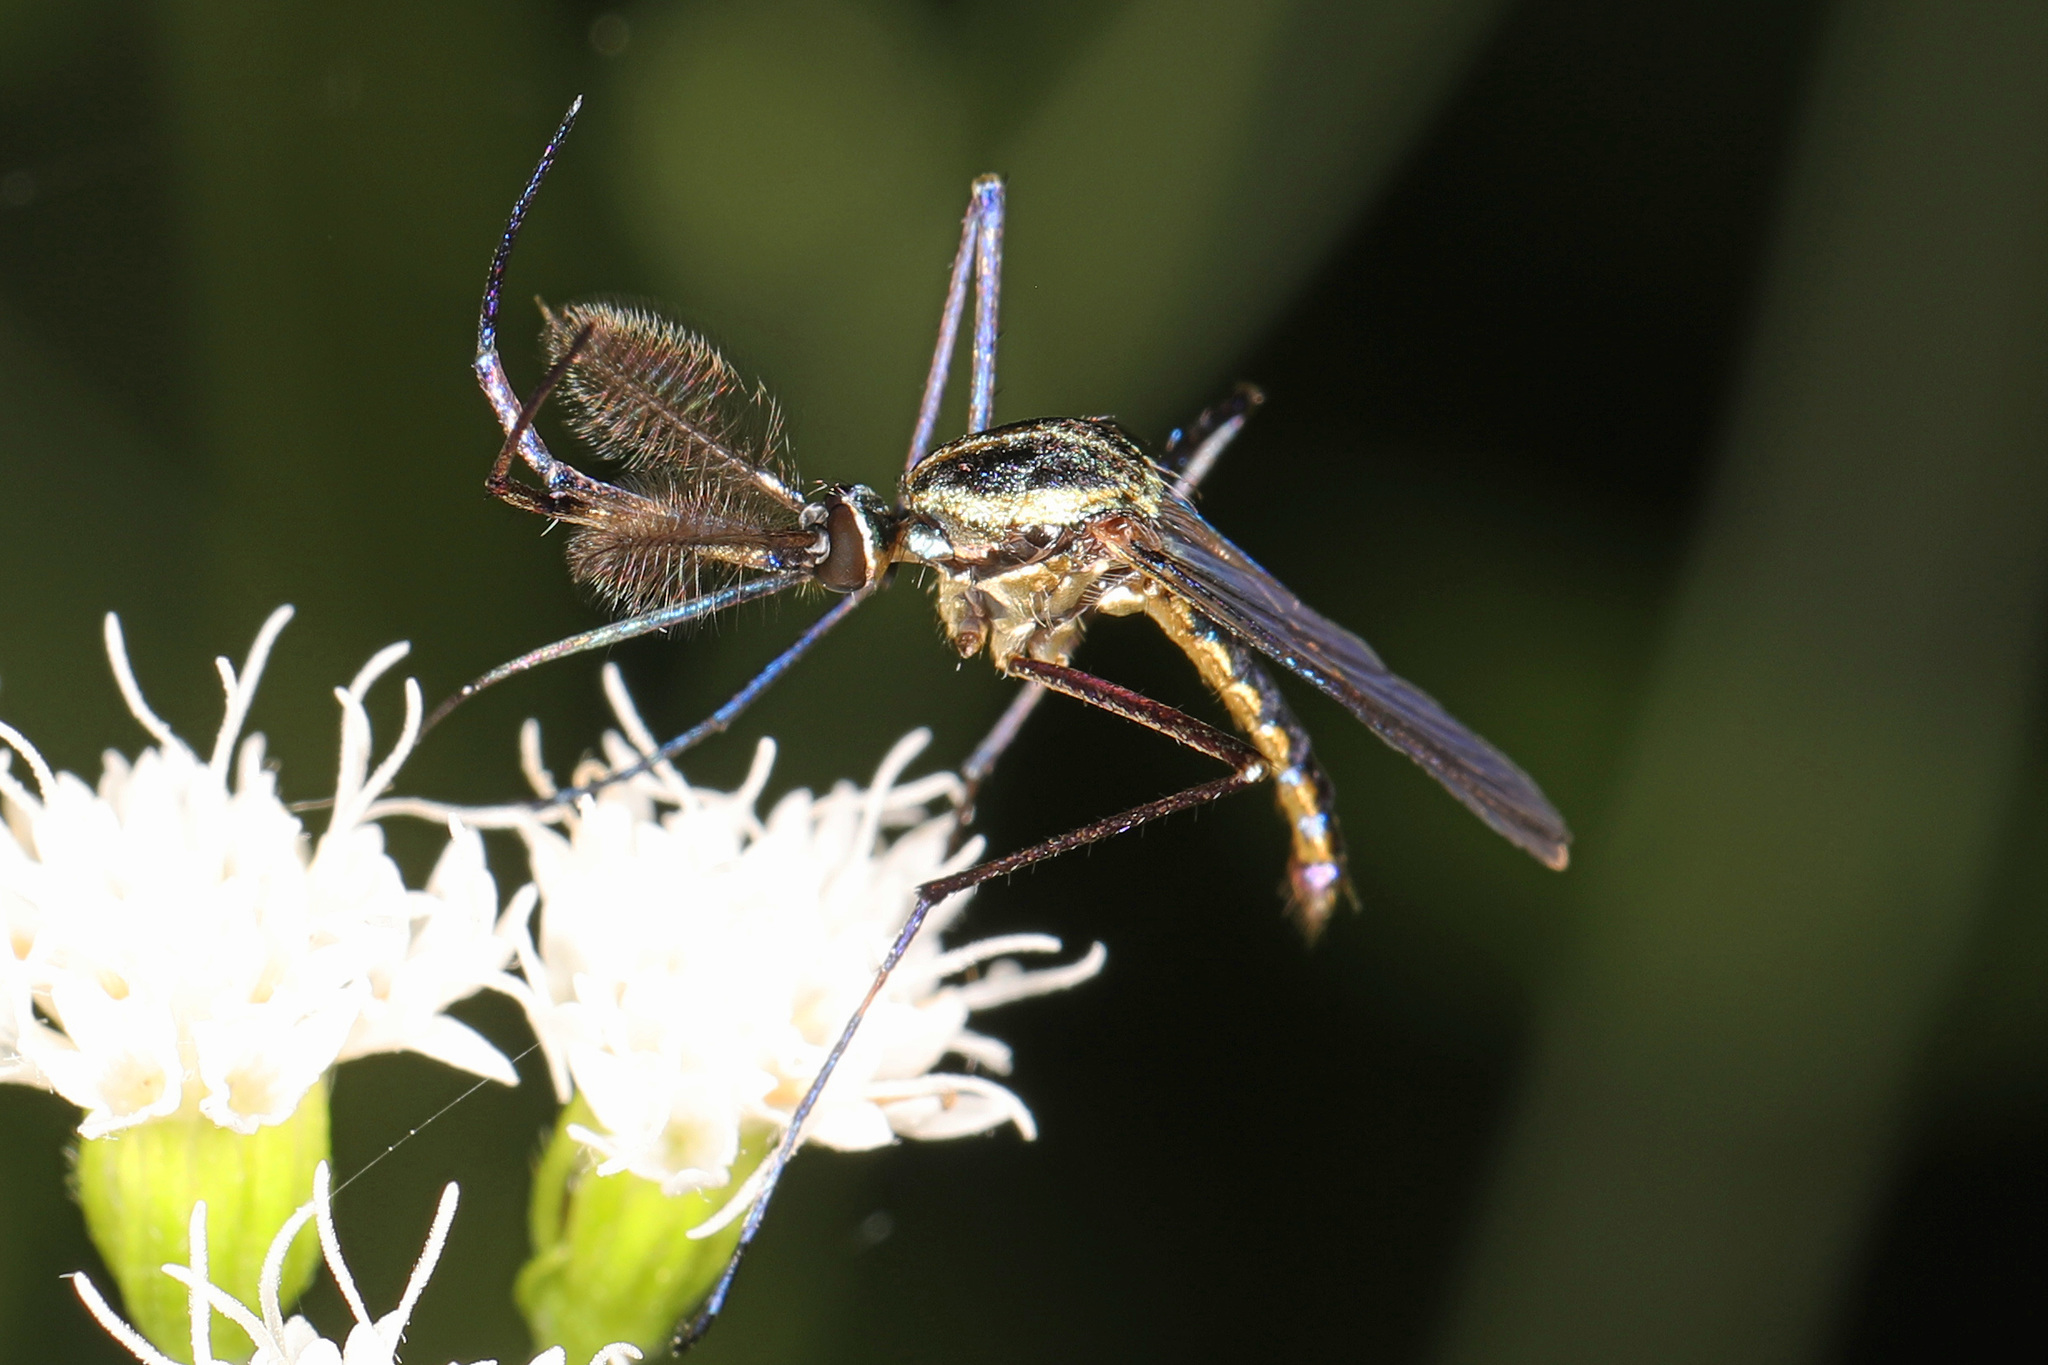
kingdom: Animalia
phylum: Arthropoda
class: Insecta
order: Diptera
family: Culicidae
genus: Toxorhynchites
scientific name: Toxorhynchites rutilus
